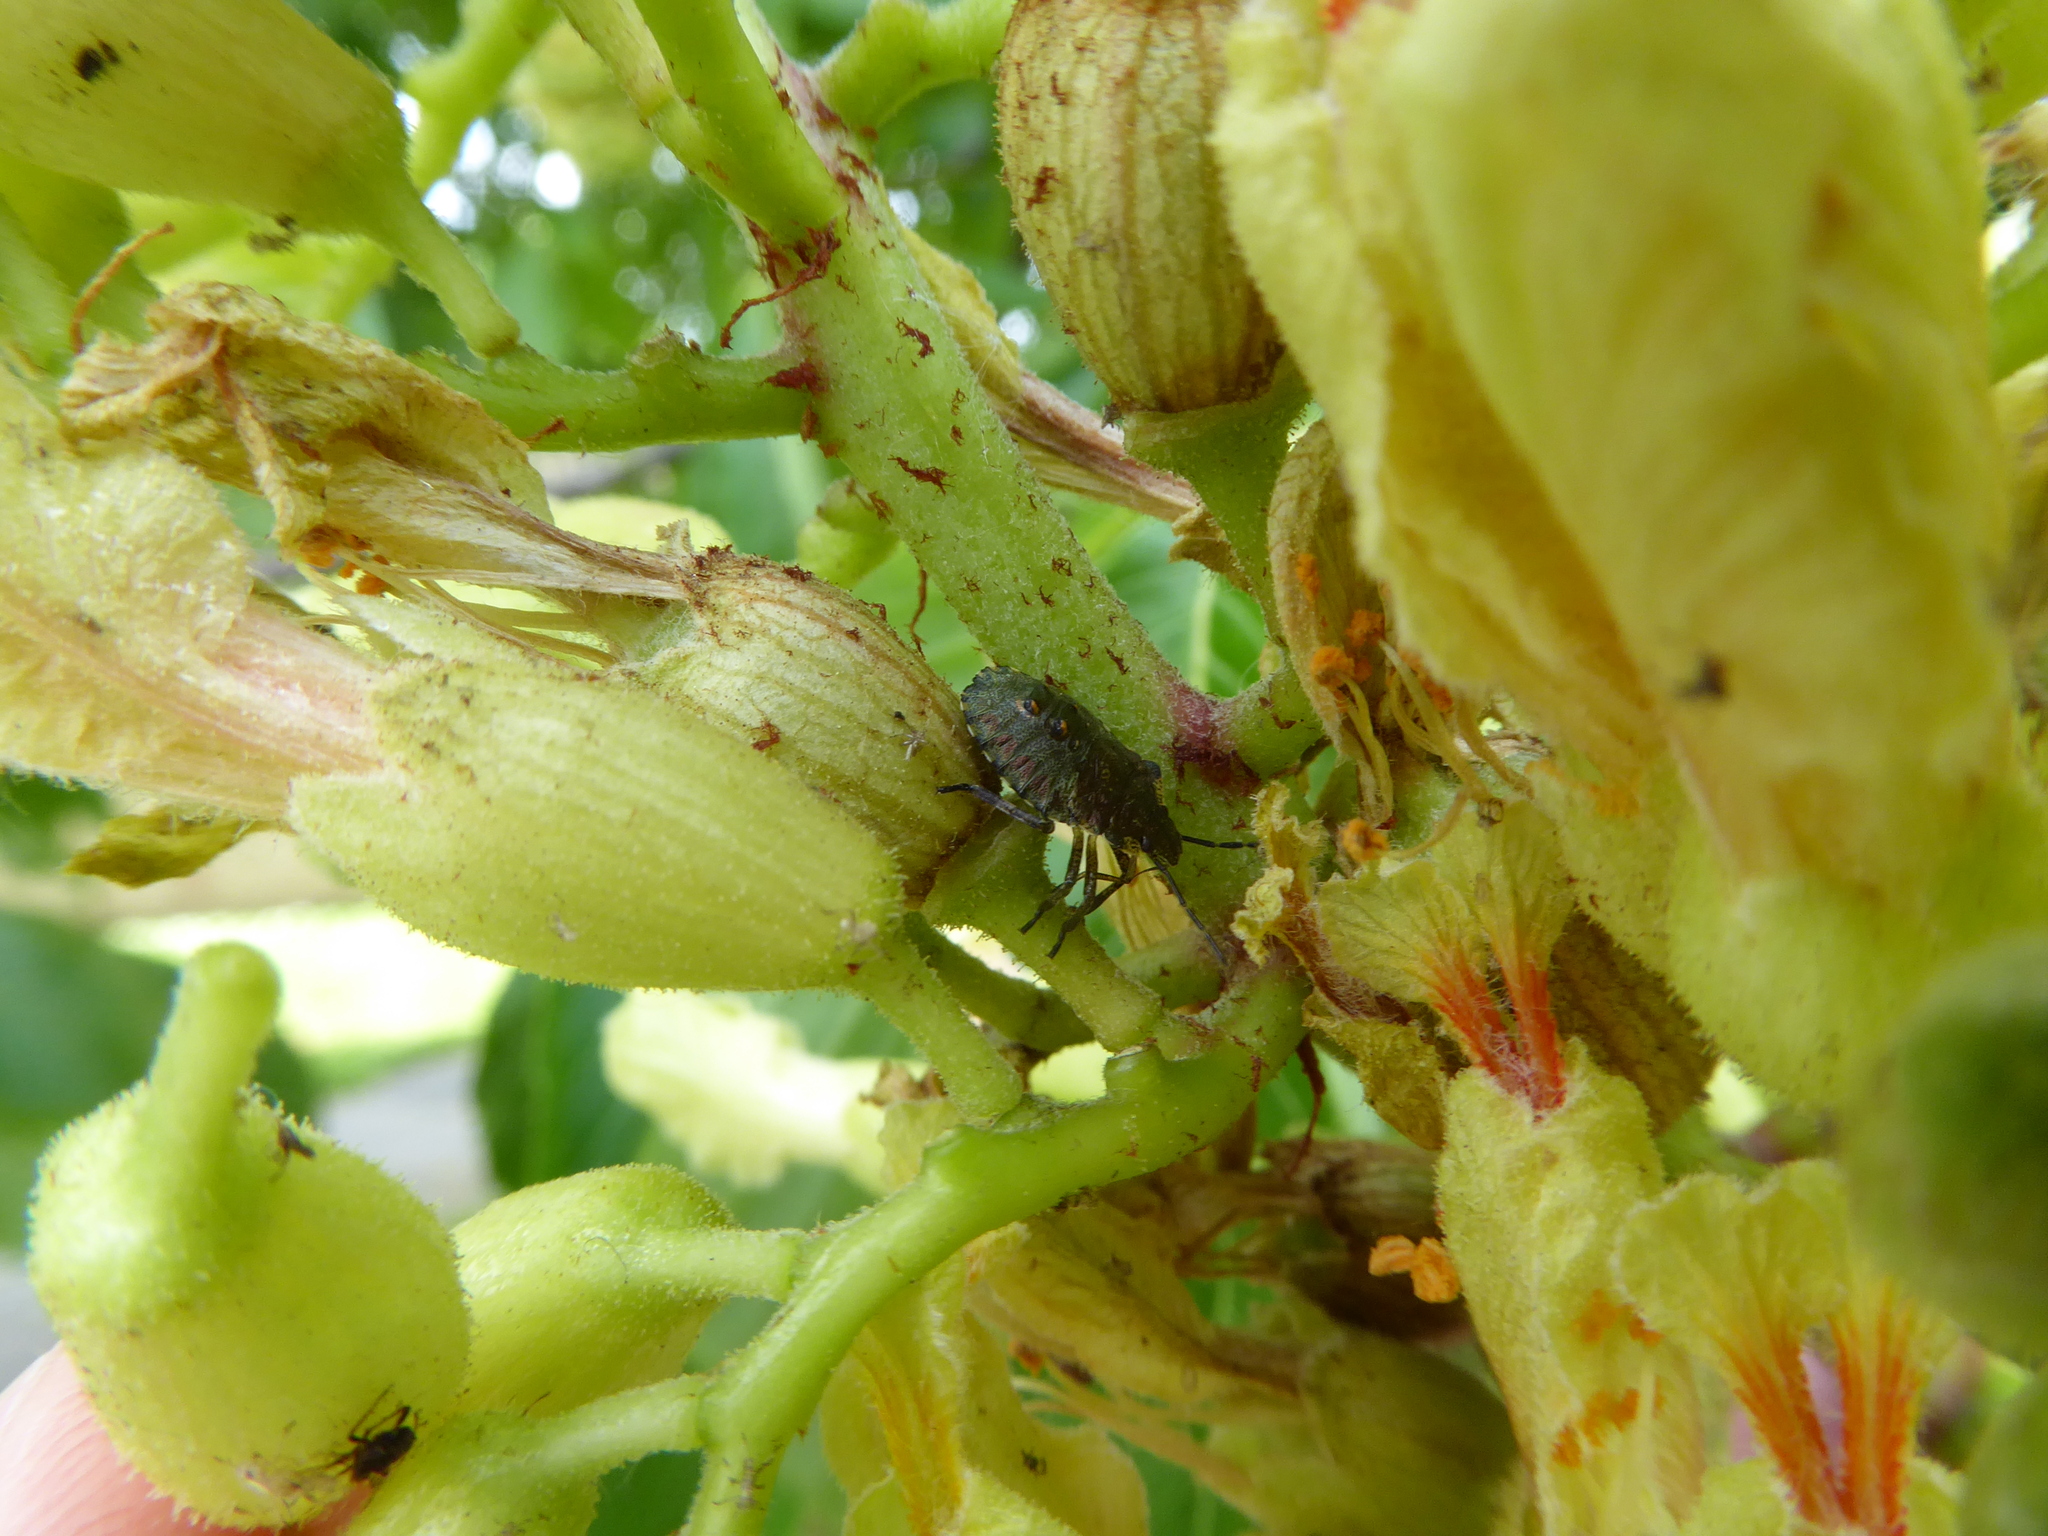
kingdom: Animalia
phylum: Arthropoda
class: Insecta
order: Hemiptera
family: Pentatomidae
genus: Pentatoma
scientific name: Pentatoma rufipes
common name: Forest bug
